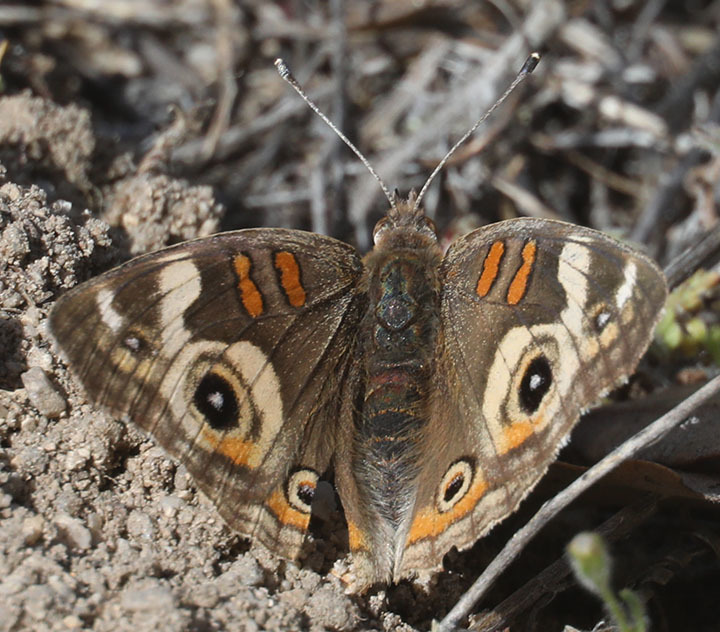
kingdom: Animalia
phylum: Arthropoda
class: Insecta
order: Lepidoptera
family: Nymphalidae
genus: Junonia
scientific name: Junonia grisea
